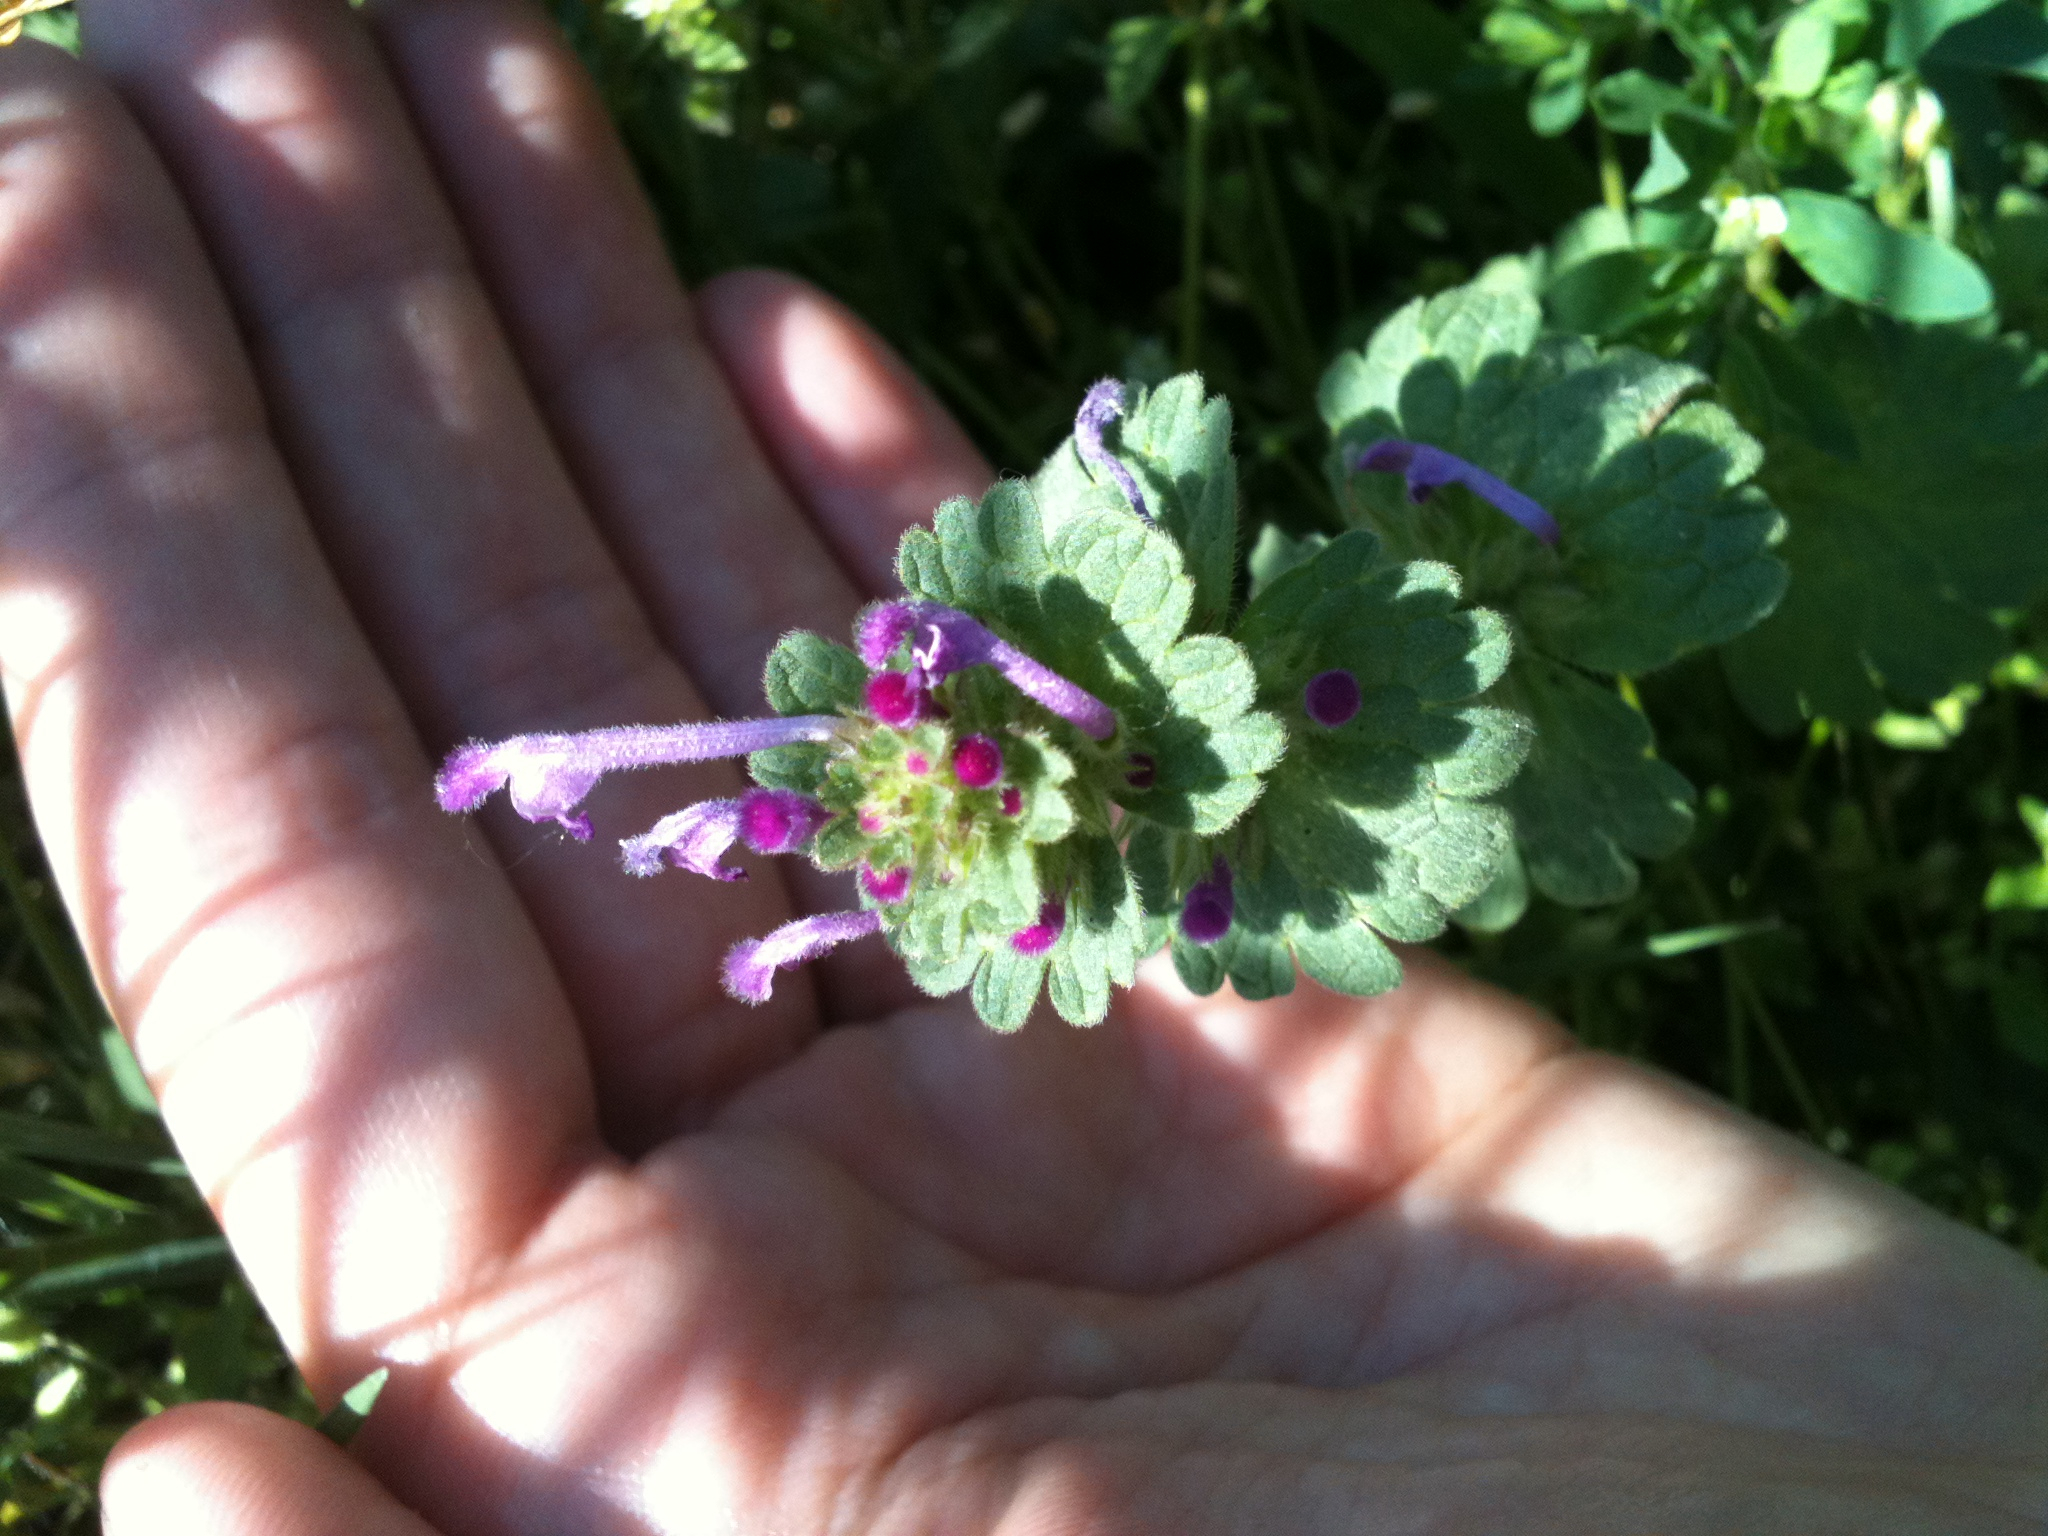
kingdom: Plantae
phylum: Tracheophyta
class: Magnoliopsida
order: Lamiales
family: Lamiaceae
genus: Lamium
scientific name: Lamium amplexicaule
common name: Henbit dead-nettle
